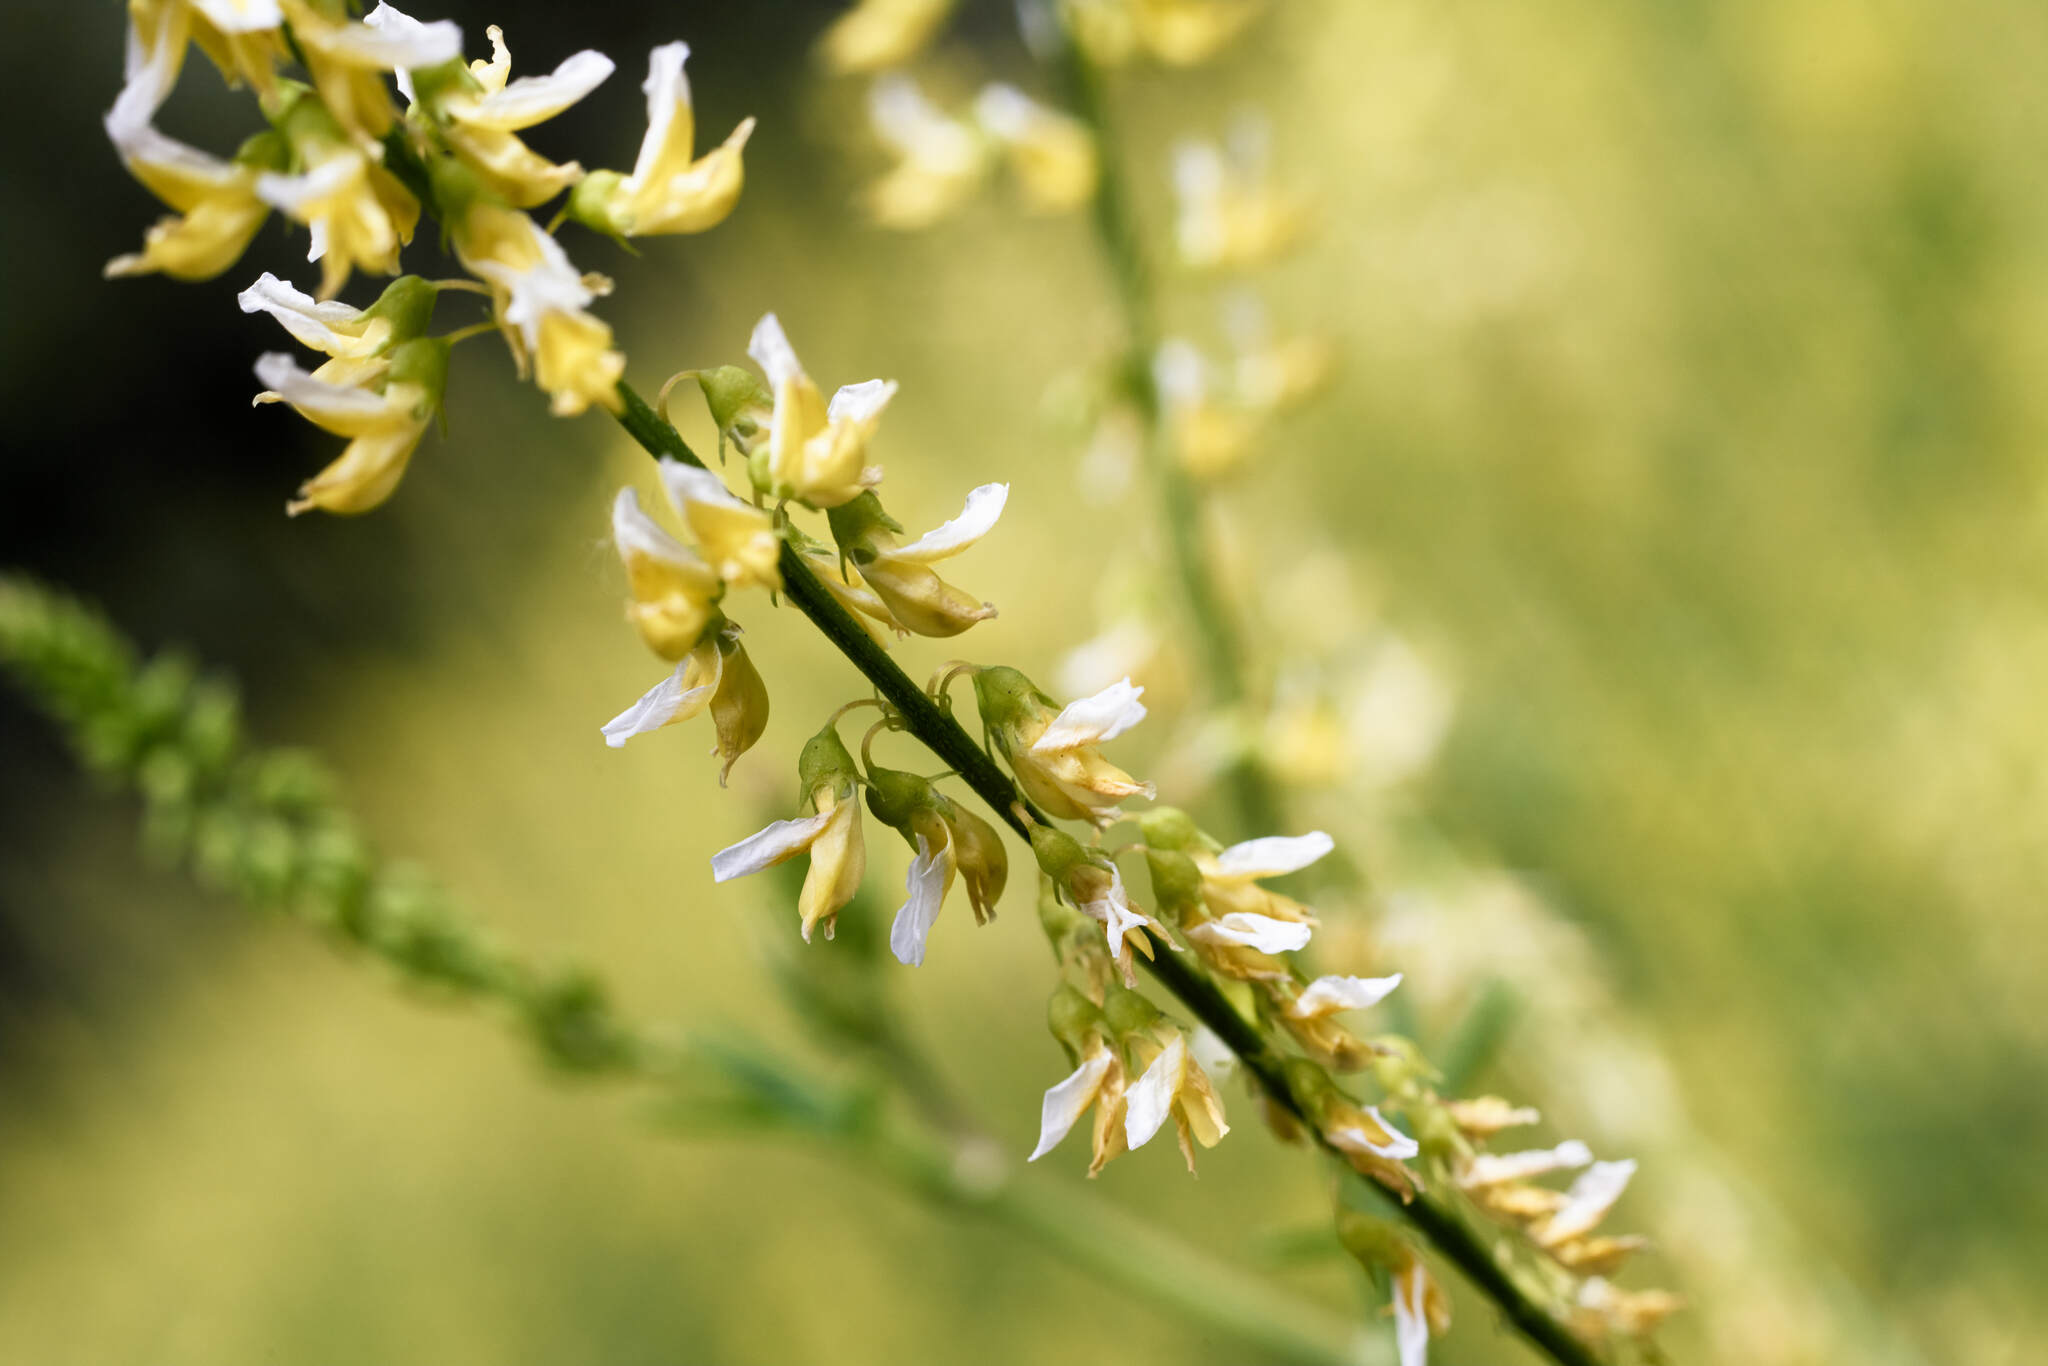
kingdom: Plantae
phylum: Tracheophyta
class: Magnoliopsida
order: Fabales
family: Fabaceae
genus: Melilotus
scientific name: Melilotus officinalis
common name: Sweetclover
